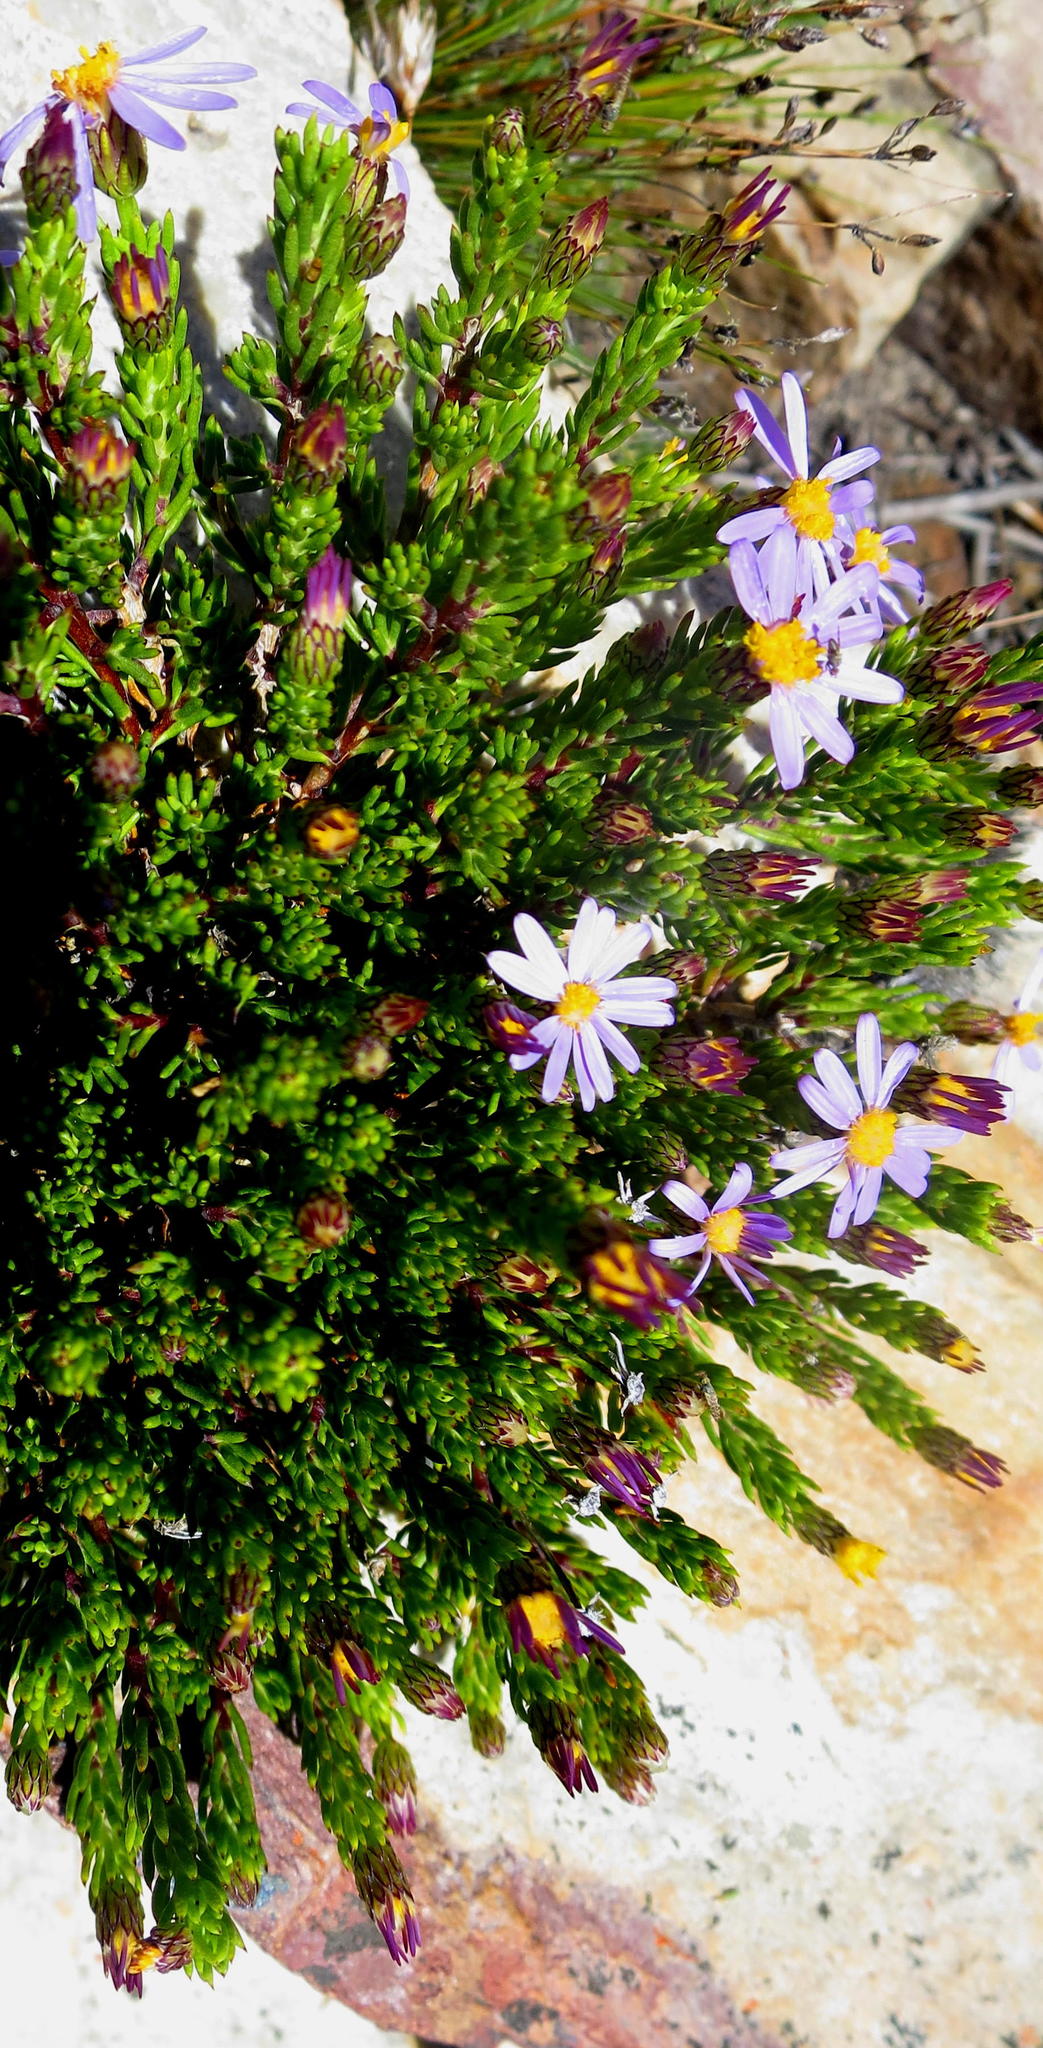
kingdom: Plantae
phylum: Tracheophyta
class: Magnoliopsida
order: Asterales
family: Asteraceae
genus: Felicia
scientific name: Felicia oleosa
